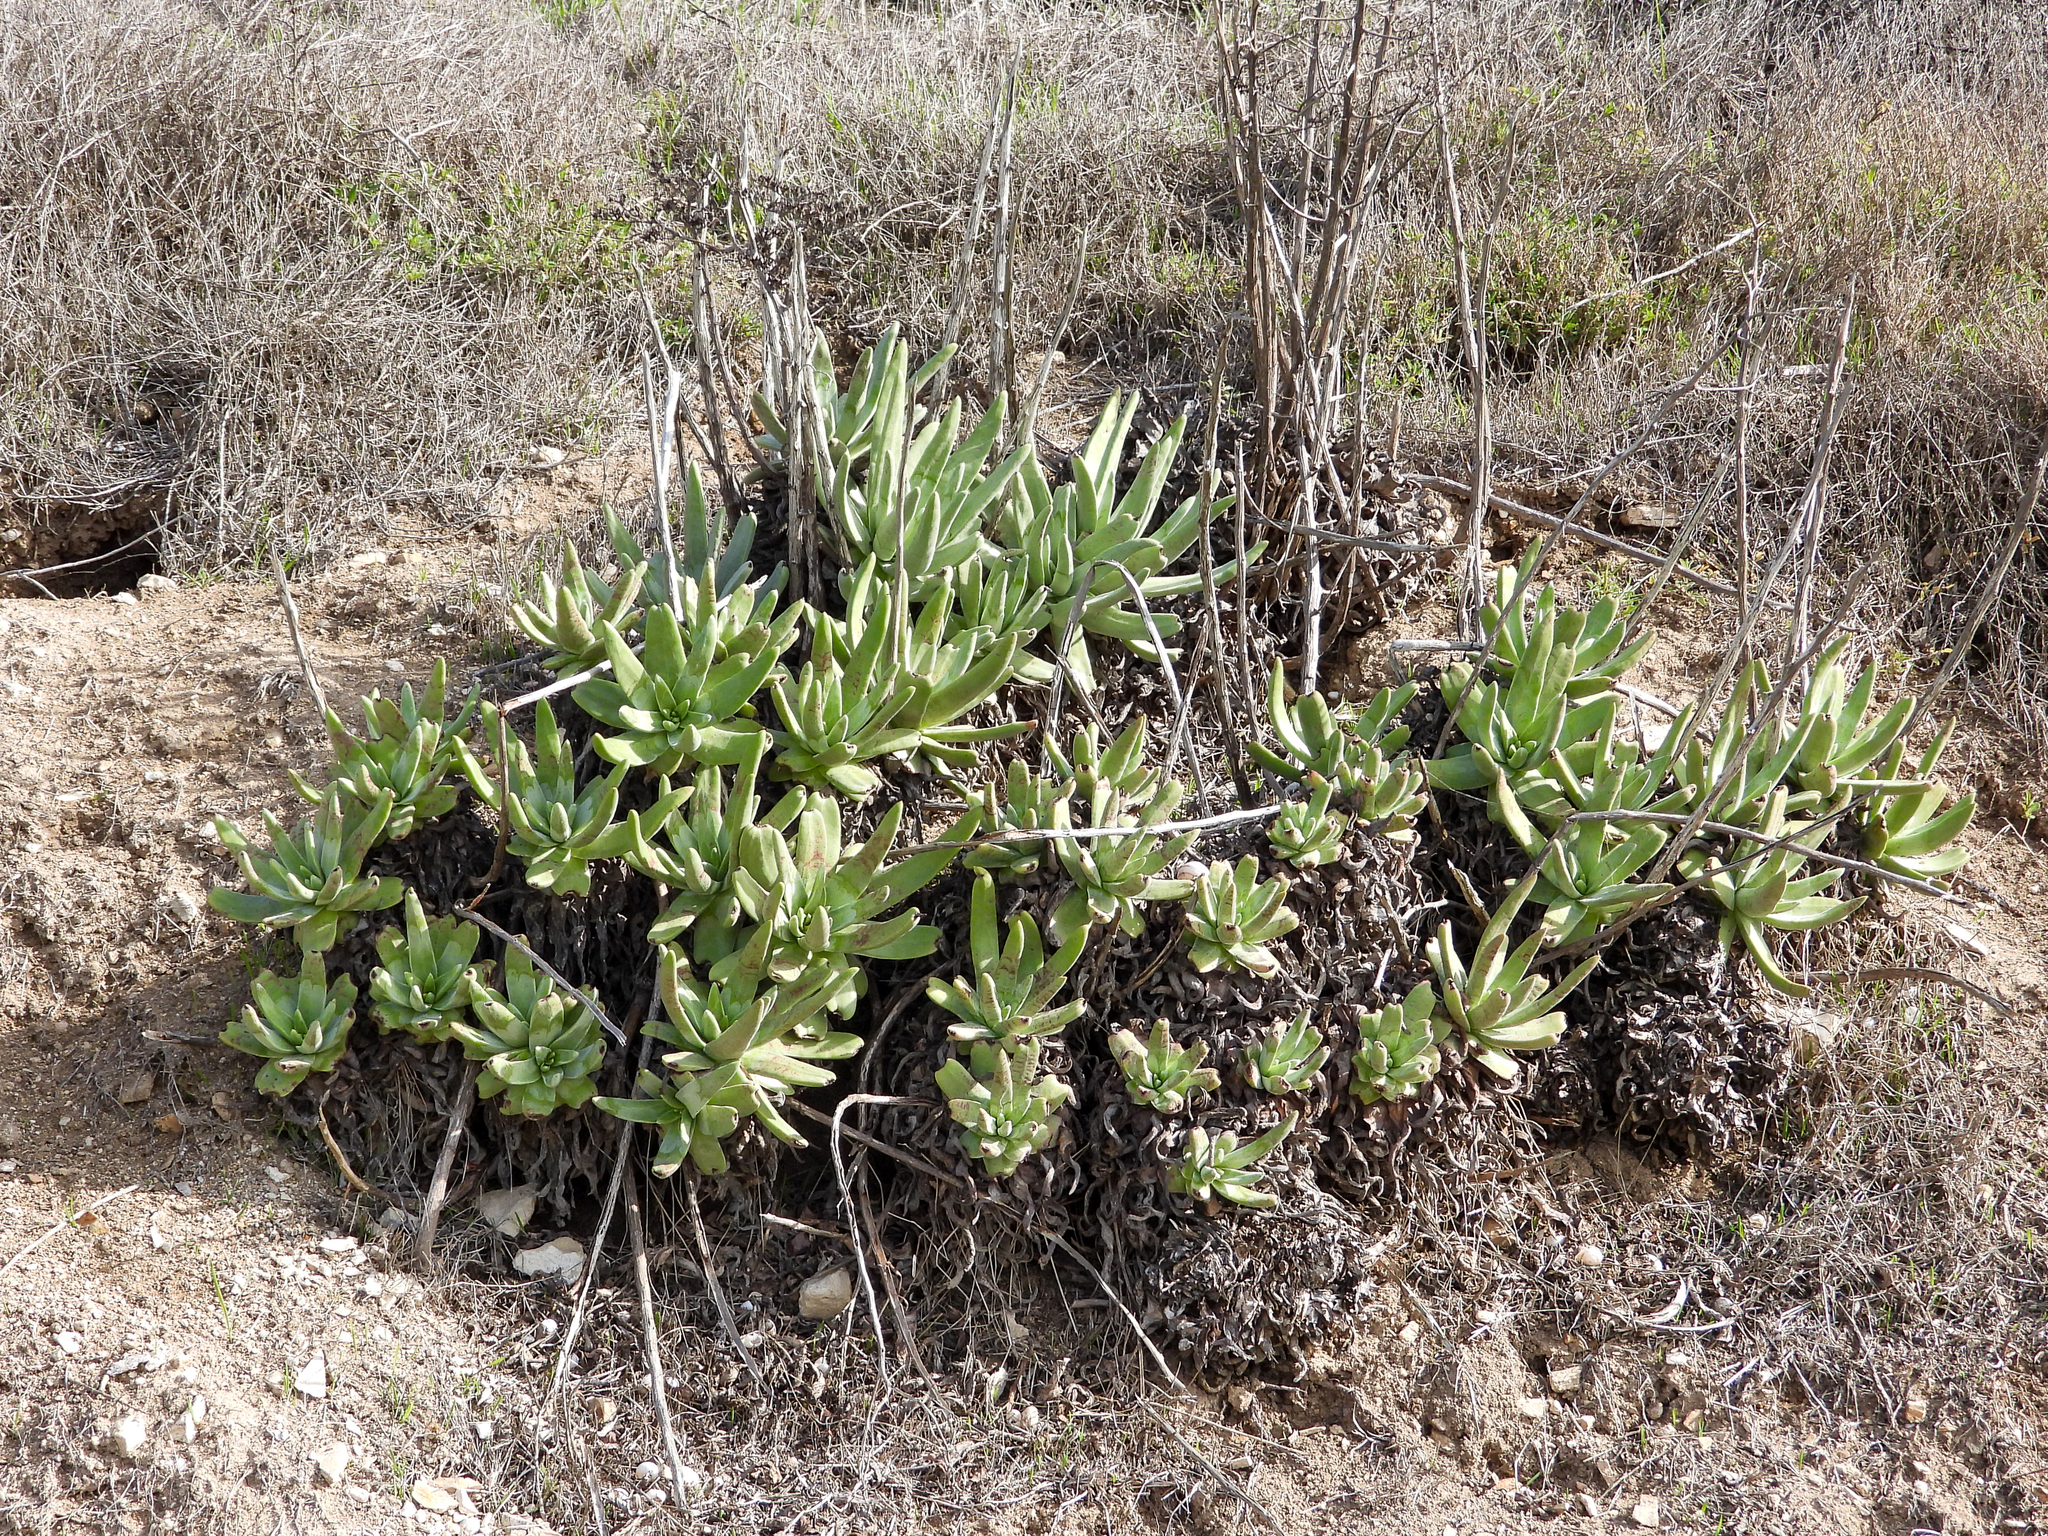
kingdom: Plantae
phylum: Tracheophyta
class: Magnoliopsida
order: Saxifragales
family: Crassulaceae
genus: Dudleya
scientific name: Dudleya virens
